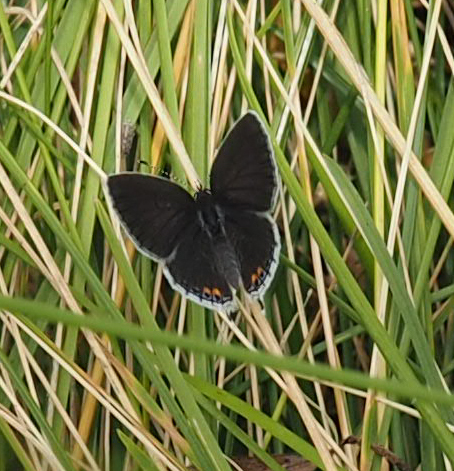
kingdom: Animalia
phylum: Arthropoda
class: Insecta
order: Lepidoptera
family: Lycaenidae
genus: Elkalyce
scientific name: Elkalyce comyntas
